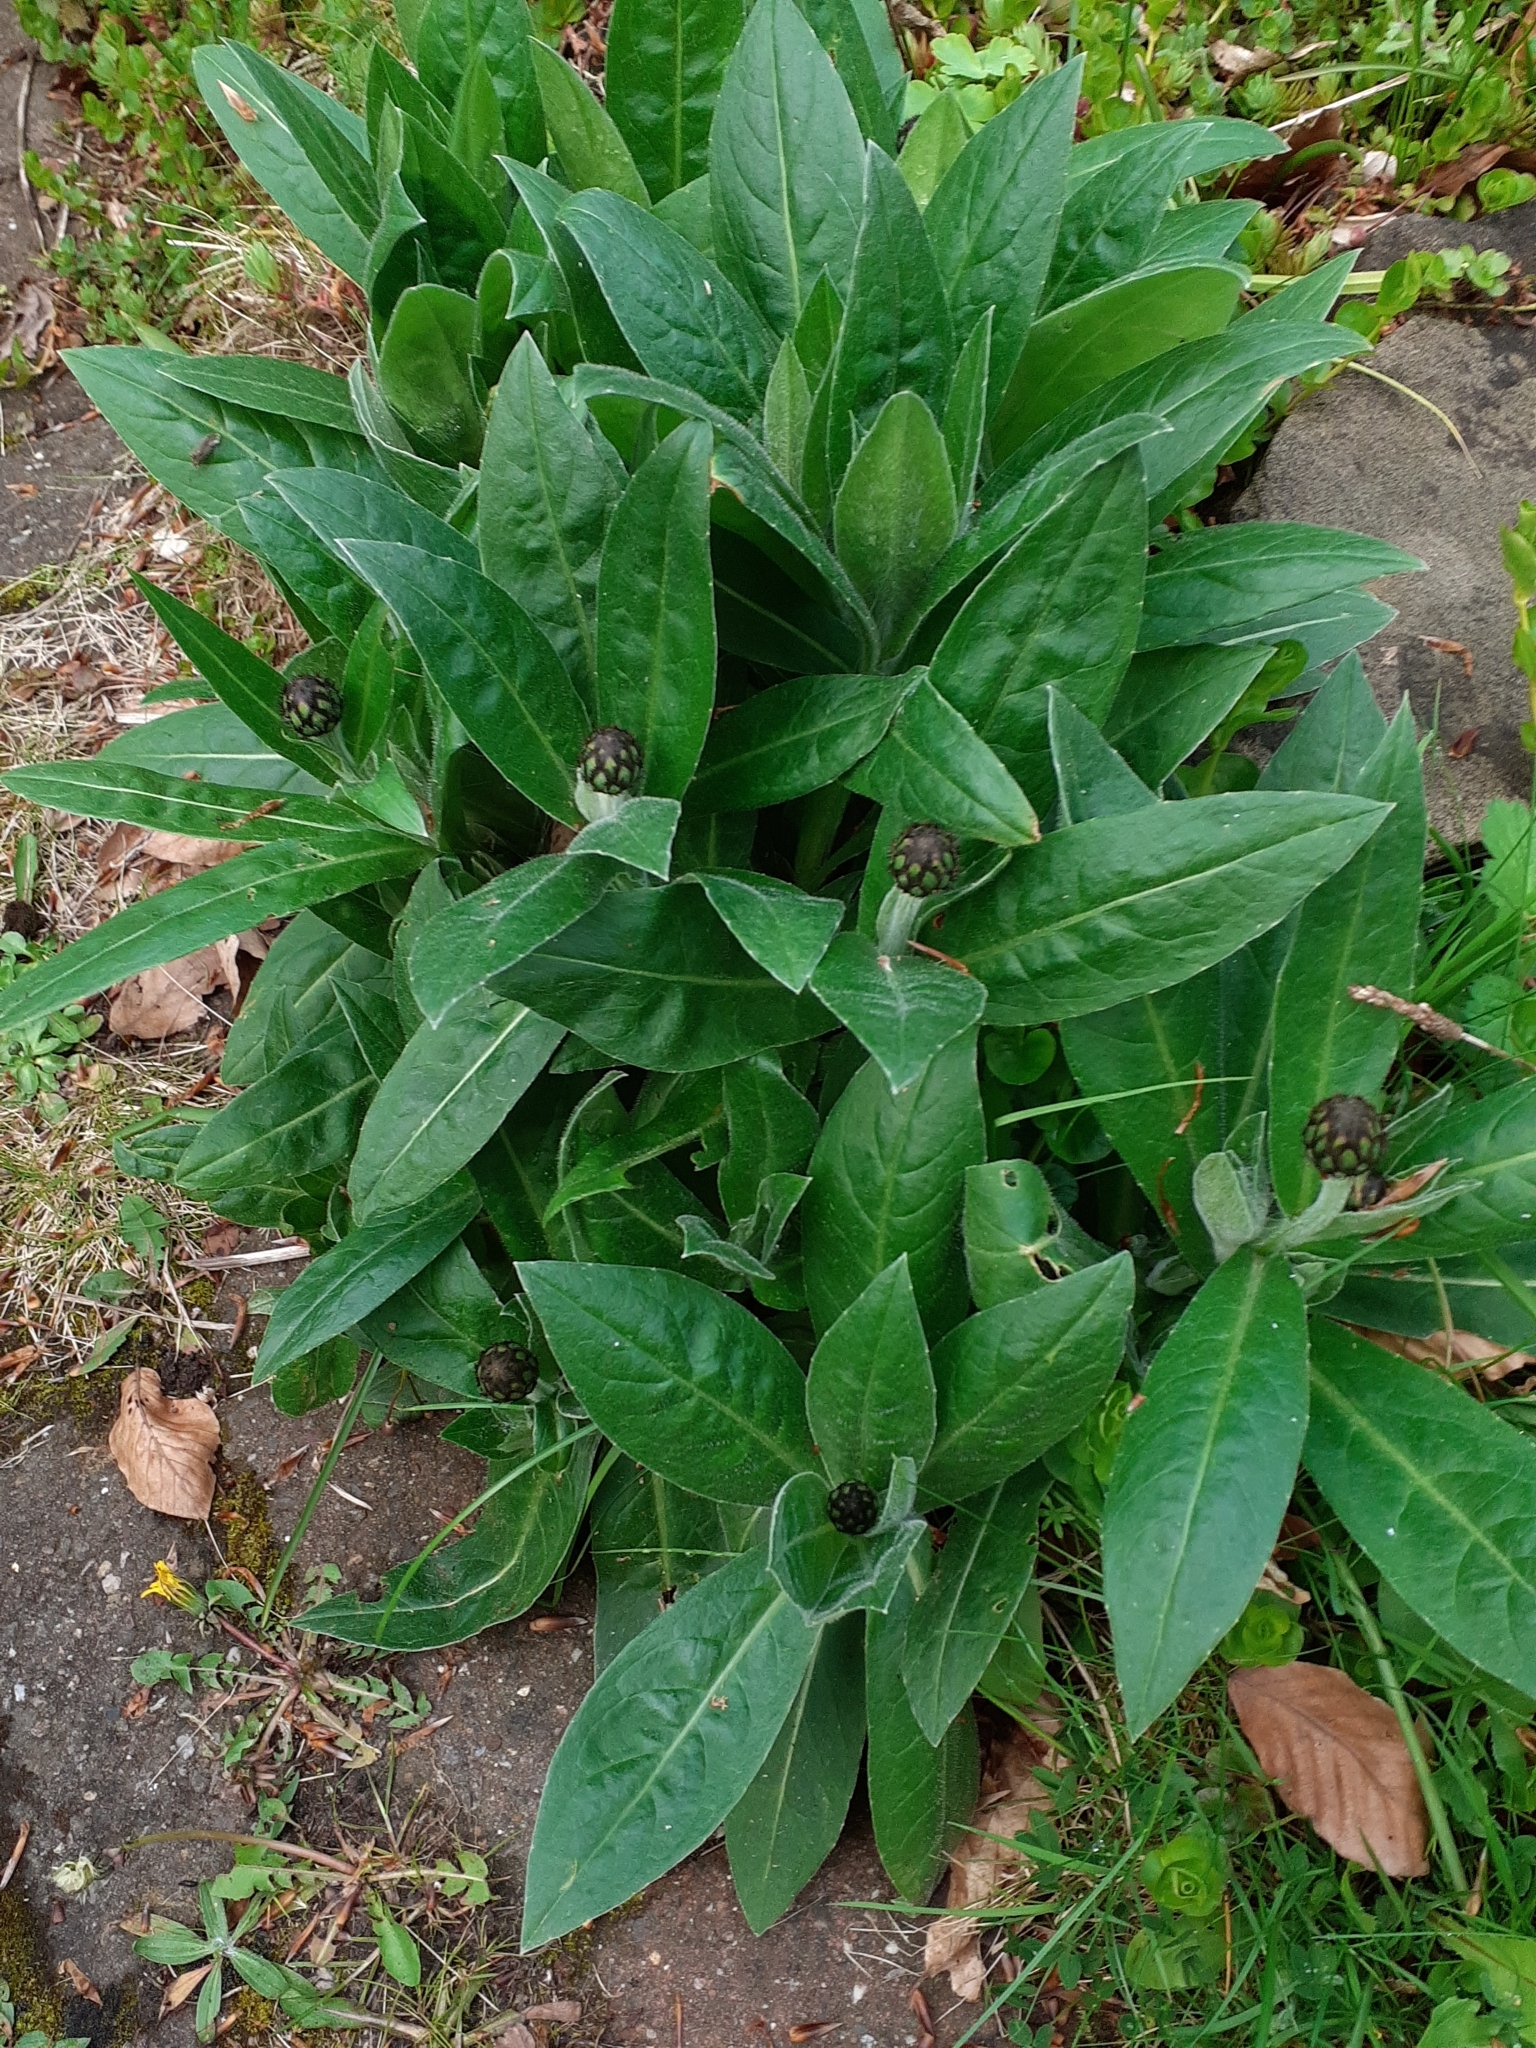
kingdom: Plantae
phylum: Tracheophyta
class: Magnoliopsida
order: Asterales
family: Asteraceae
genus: Centaurea
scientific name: Centaurea montana
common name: Perennial cornflower
